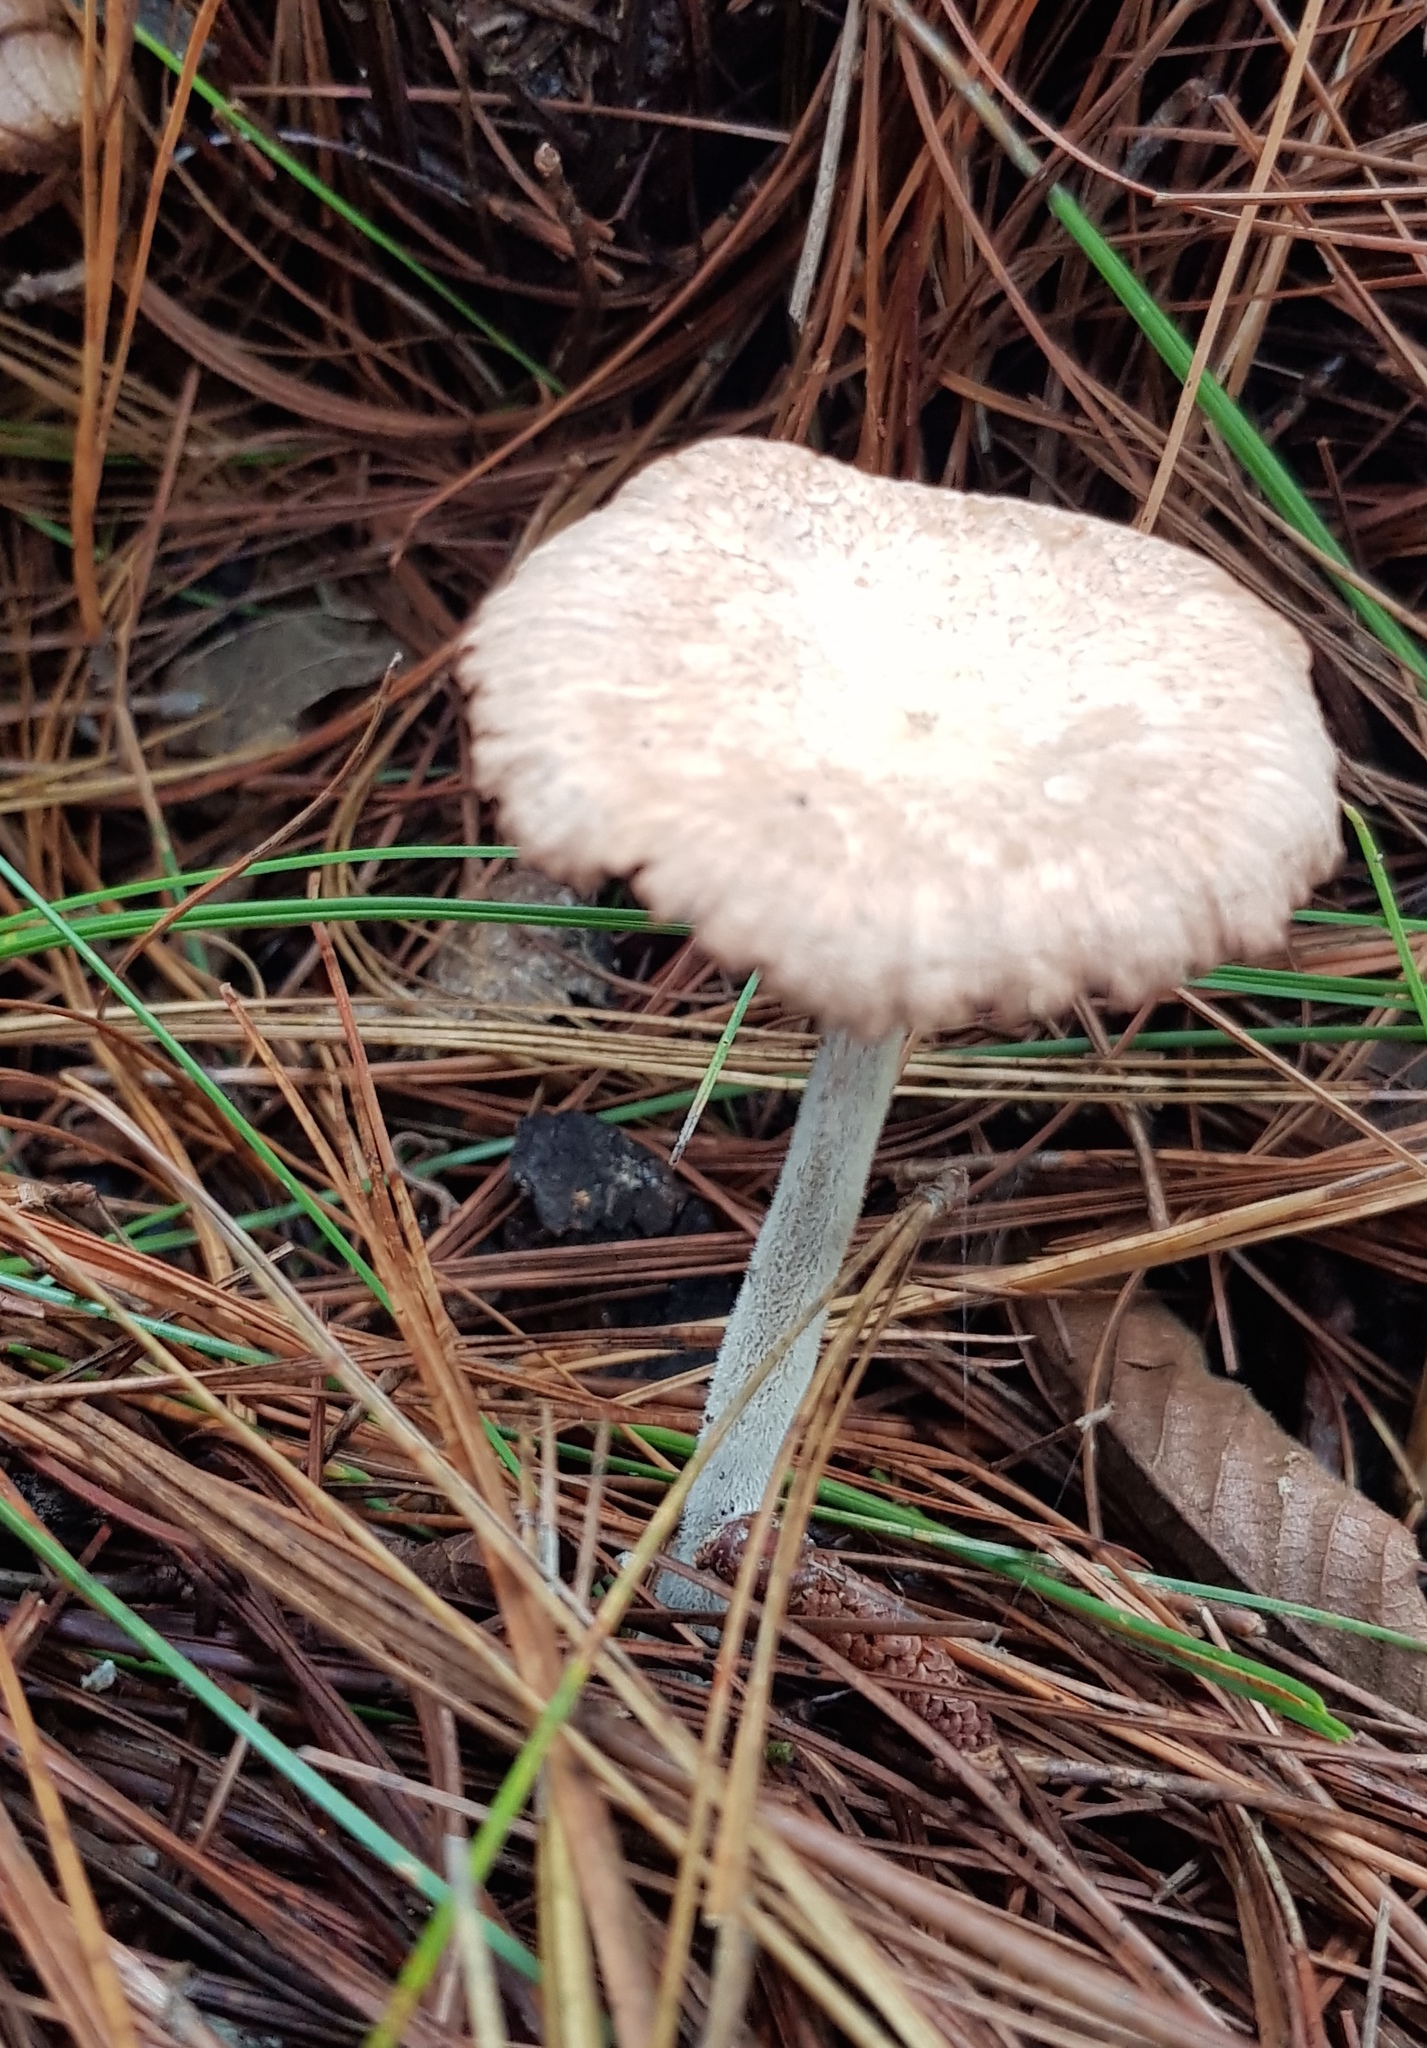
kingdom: Fungi
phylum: Basidiomycota
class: Agaricomycetes
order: Agaricales
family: Marasmiaceae
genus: Marasmius
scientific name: Marasmius oreades
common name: Fairy ring champignon
